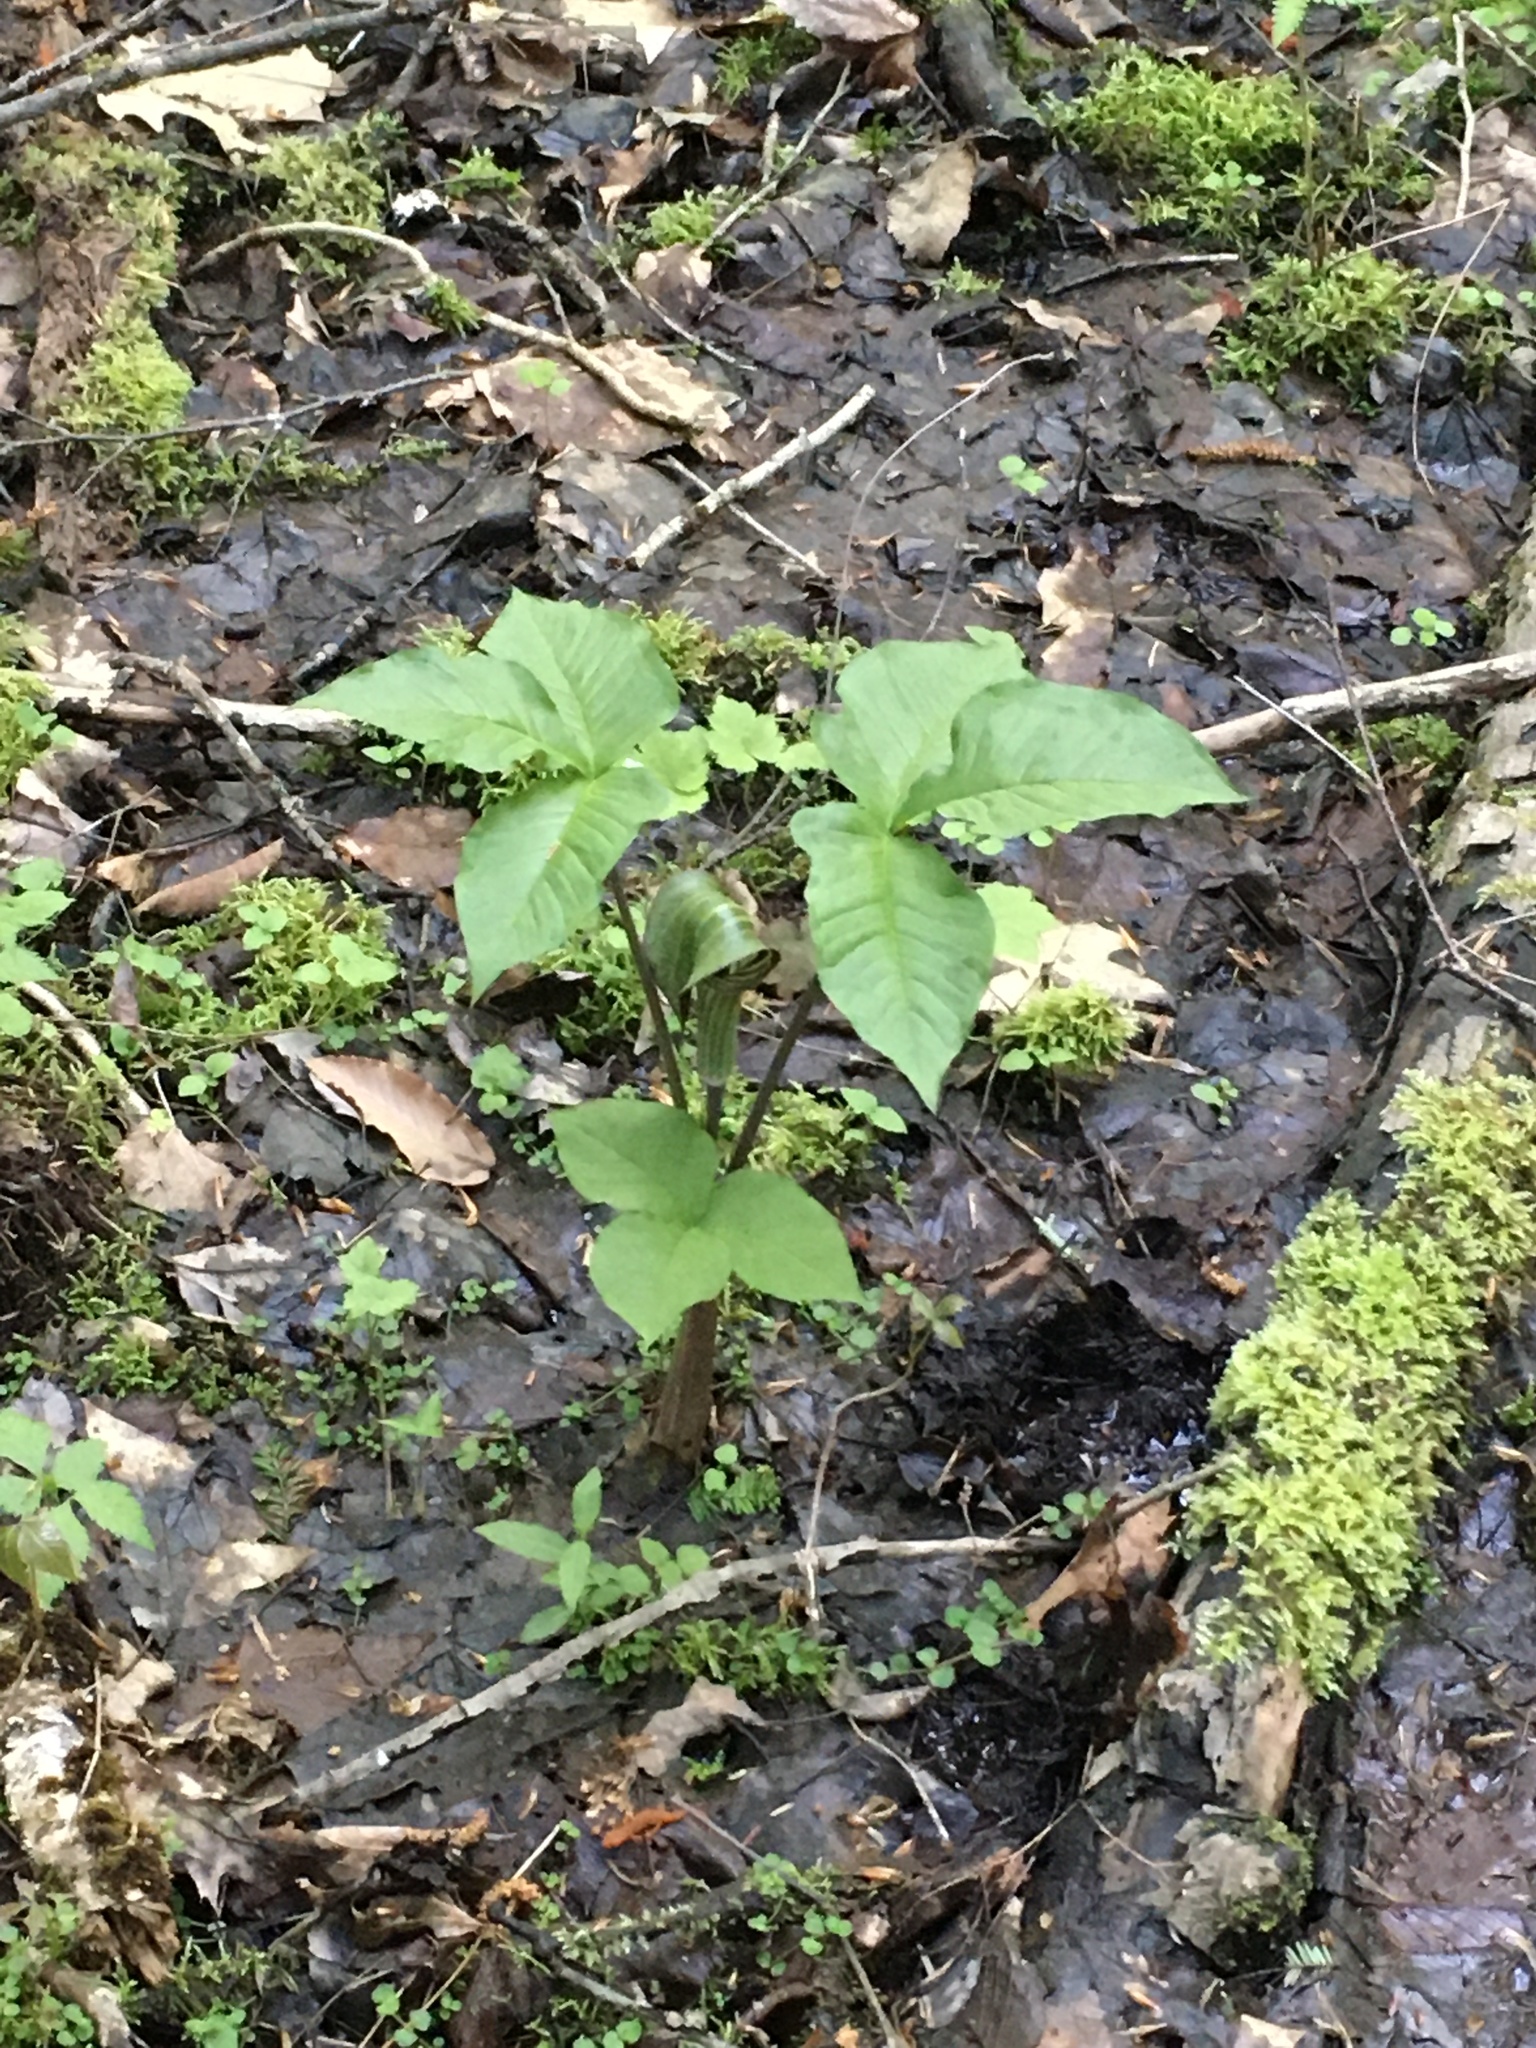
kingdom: Plantae
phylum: Tracheophyta
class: Liliopsida
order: Alismatales
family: Araceae
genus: Arisaema
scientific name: Arisaema triphyllum
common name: Jack-in-the-pulpit
